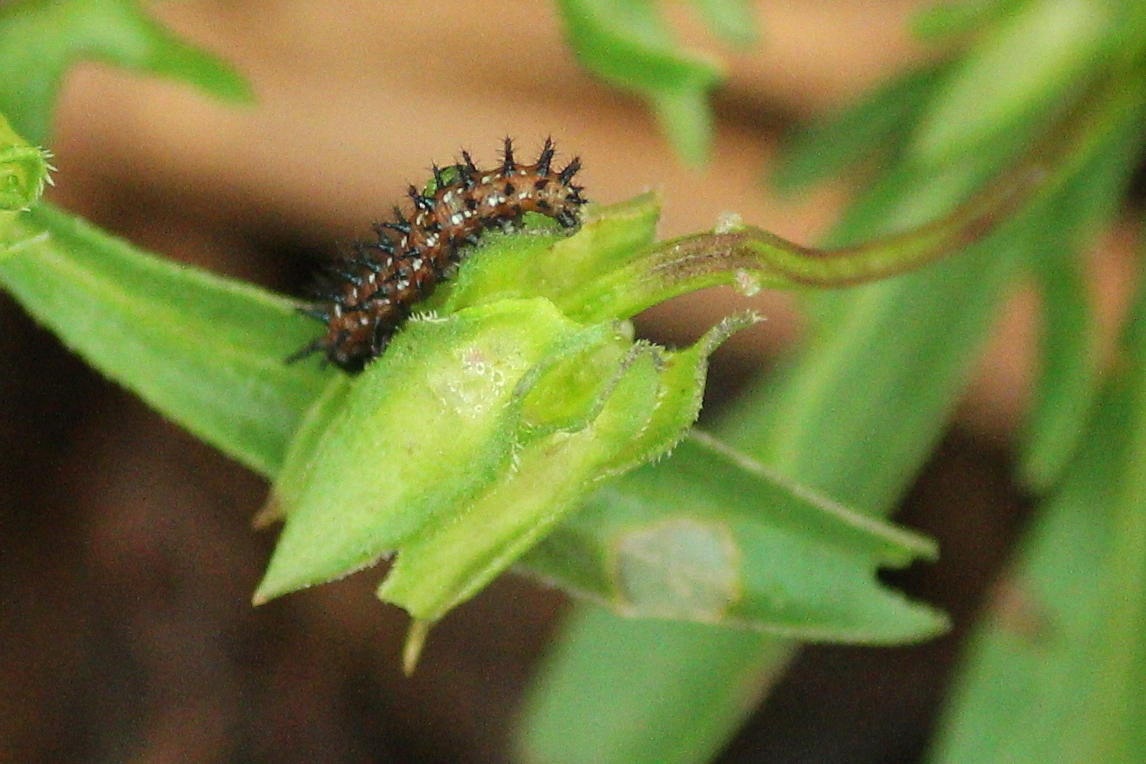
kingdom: Animalia
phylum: Arthropoda
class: Insecta
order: Lepidoptera
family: Nymphalidae
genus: Euptoieta
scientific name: Euptoieta claudia
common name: Variegated fritillary
